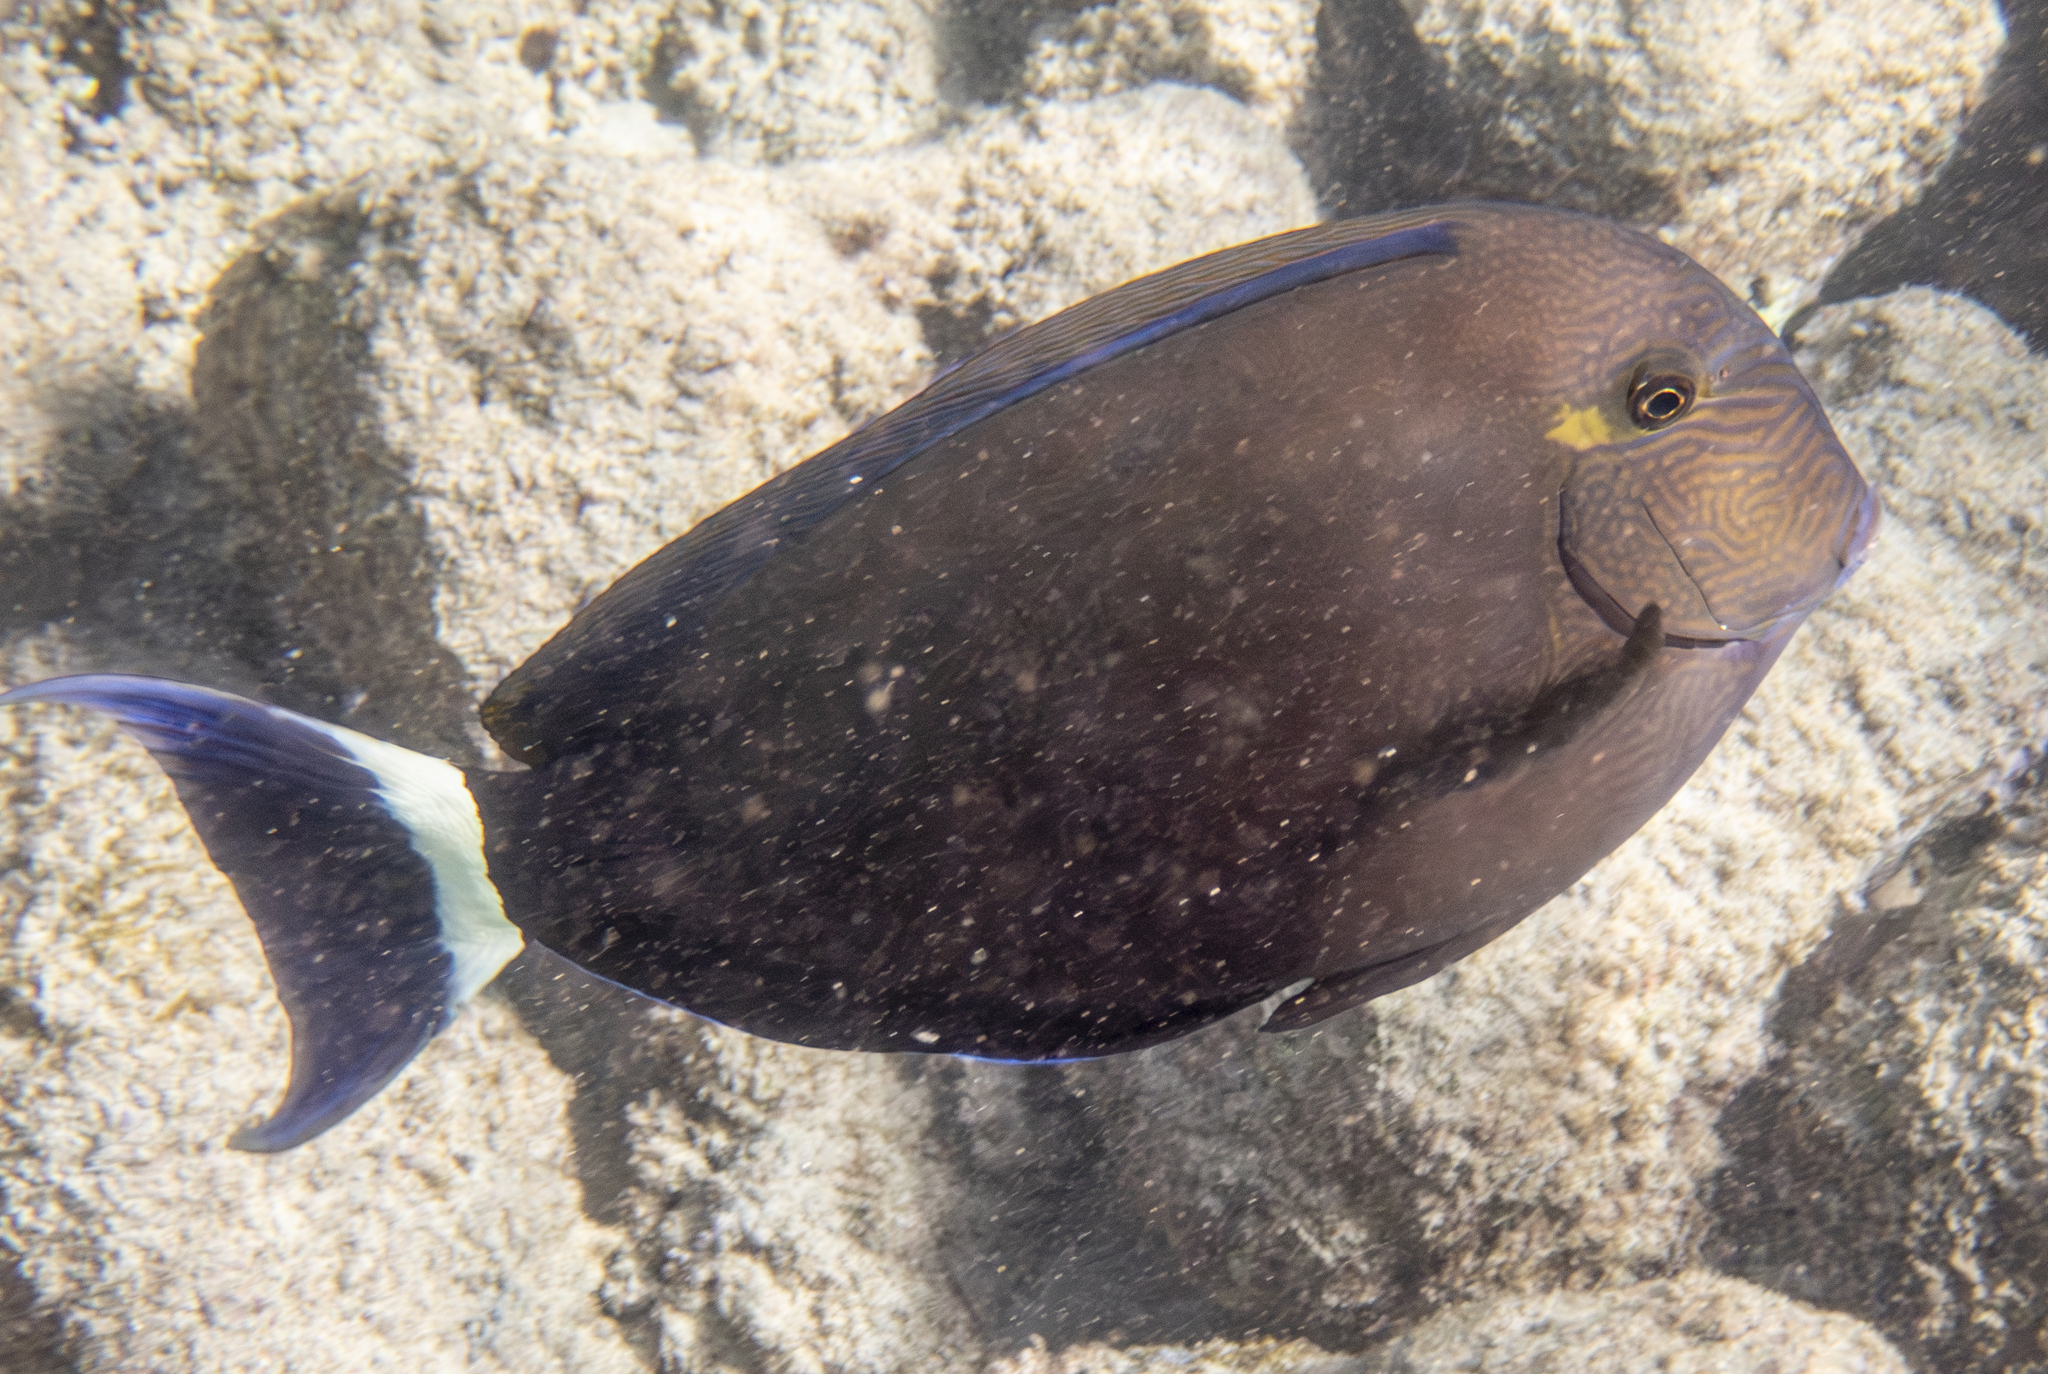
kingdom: Animalia
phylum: Chordata
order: Perciformes
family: Acanthuridae
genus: Acanthurus
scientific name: Acanthurus blochii
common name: Blue-banded pualu
